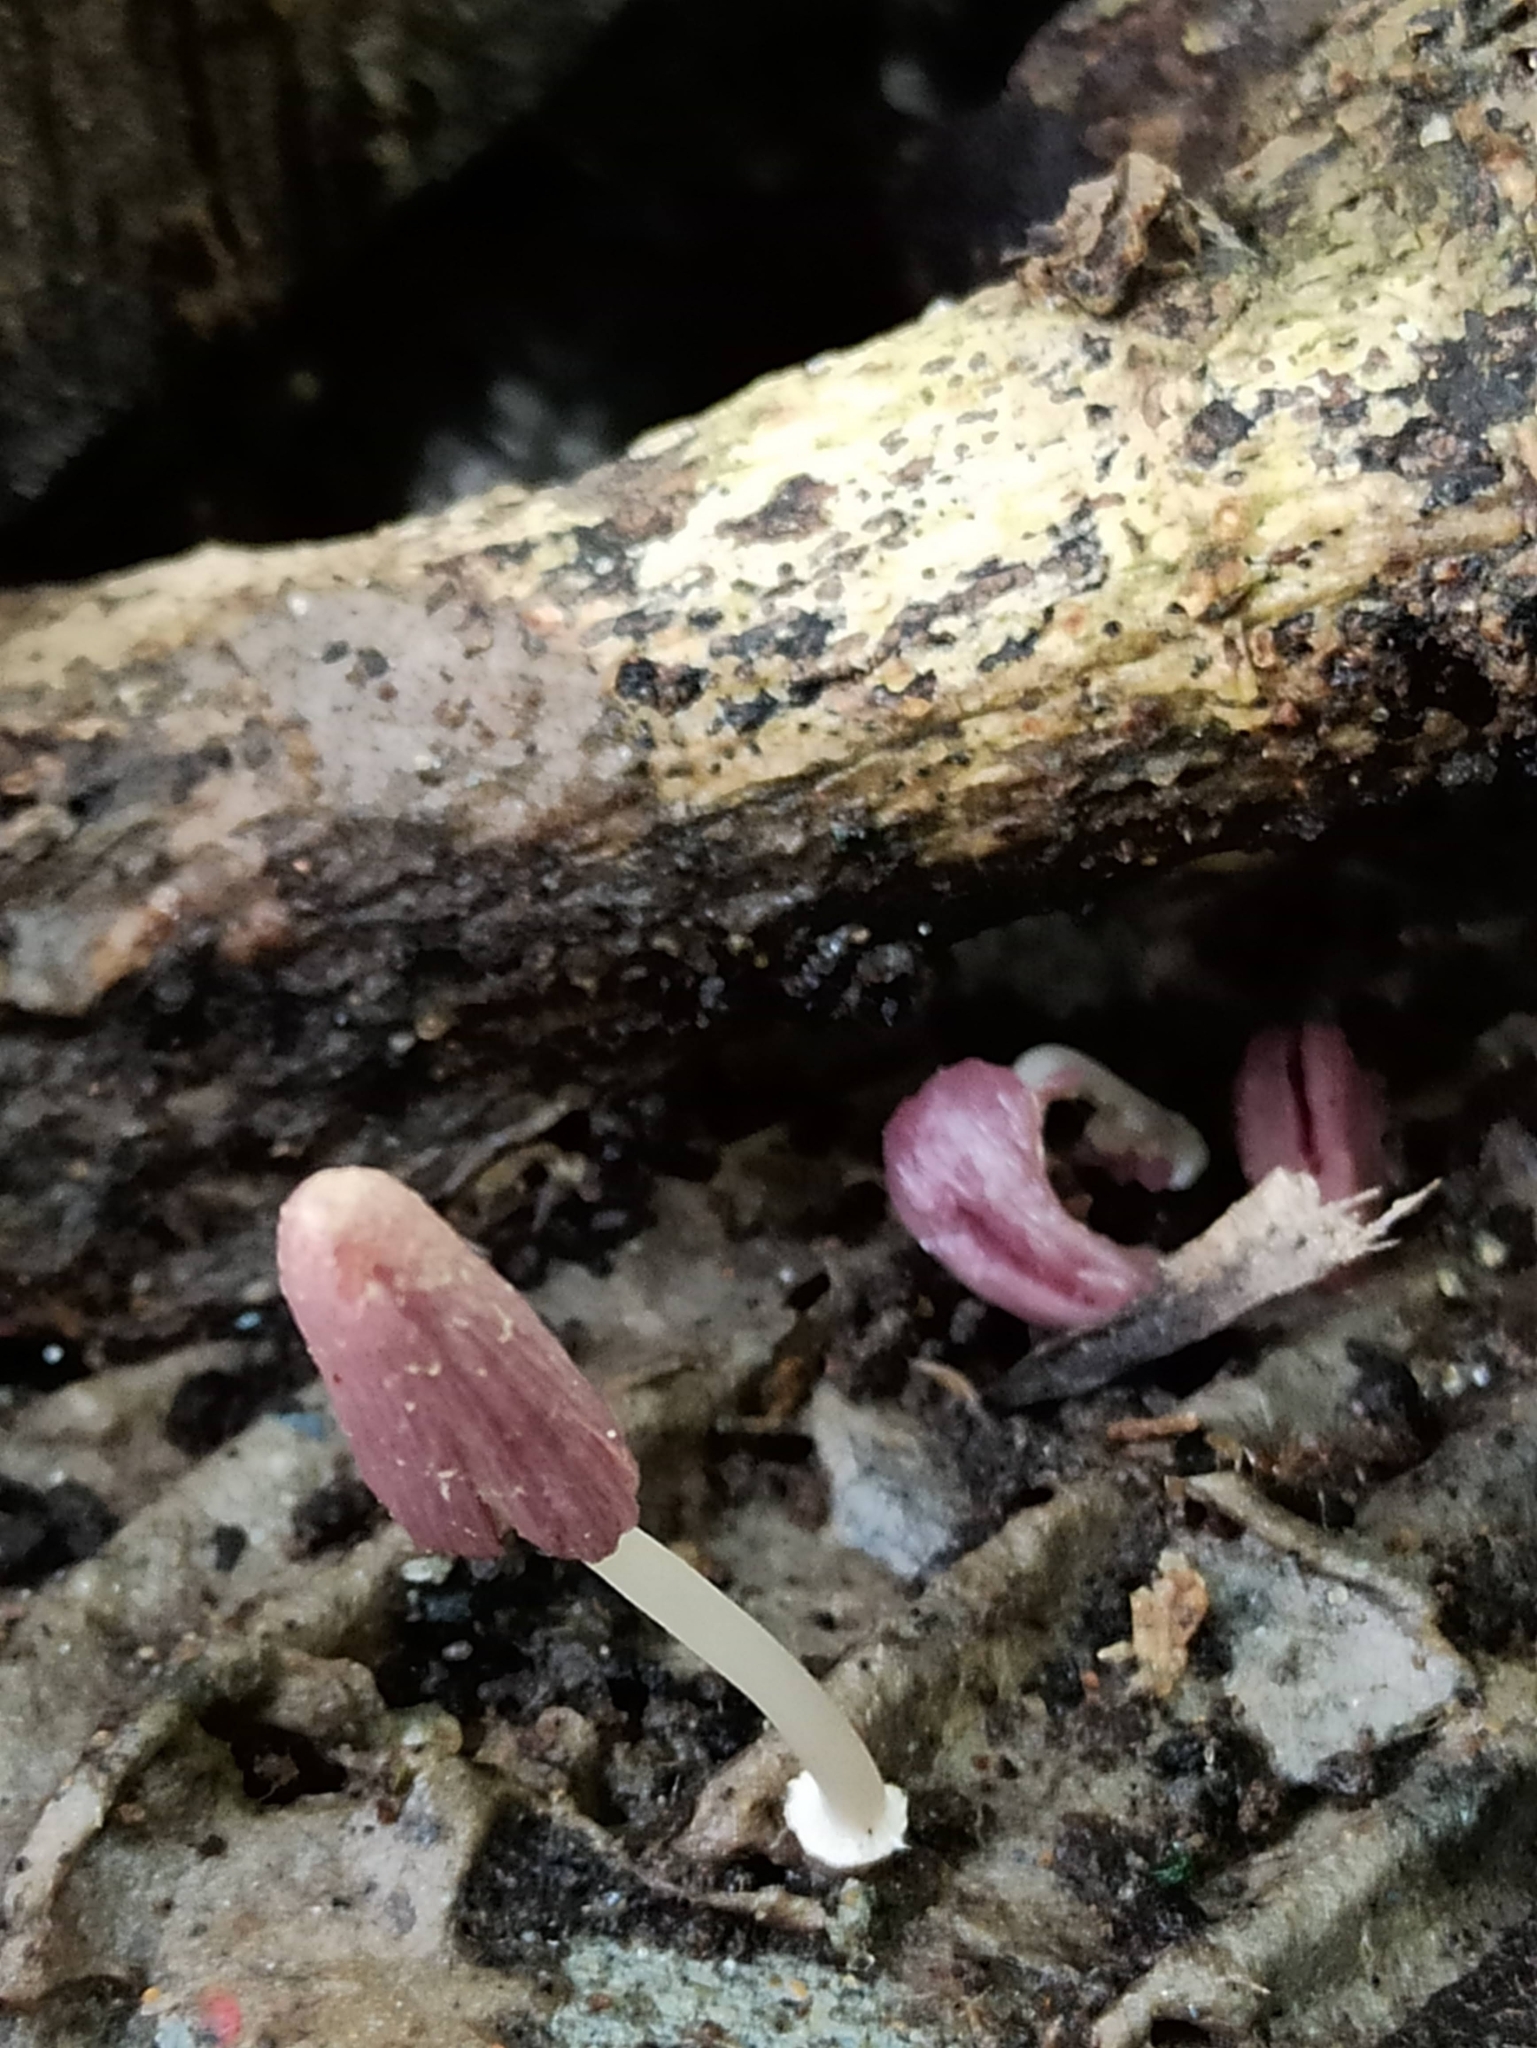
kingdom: Fungi
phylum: Basidiomycota
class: Agaricomycetes
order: Agaricales
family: Psathyrellaceae
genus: Coprinopsis
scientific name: Coprinopsis clastophylla
